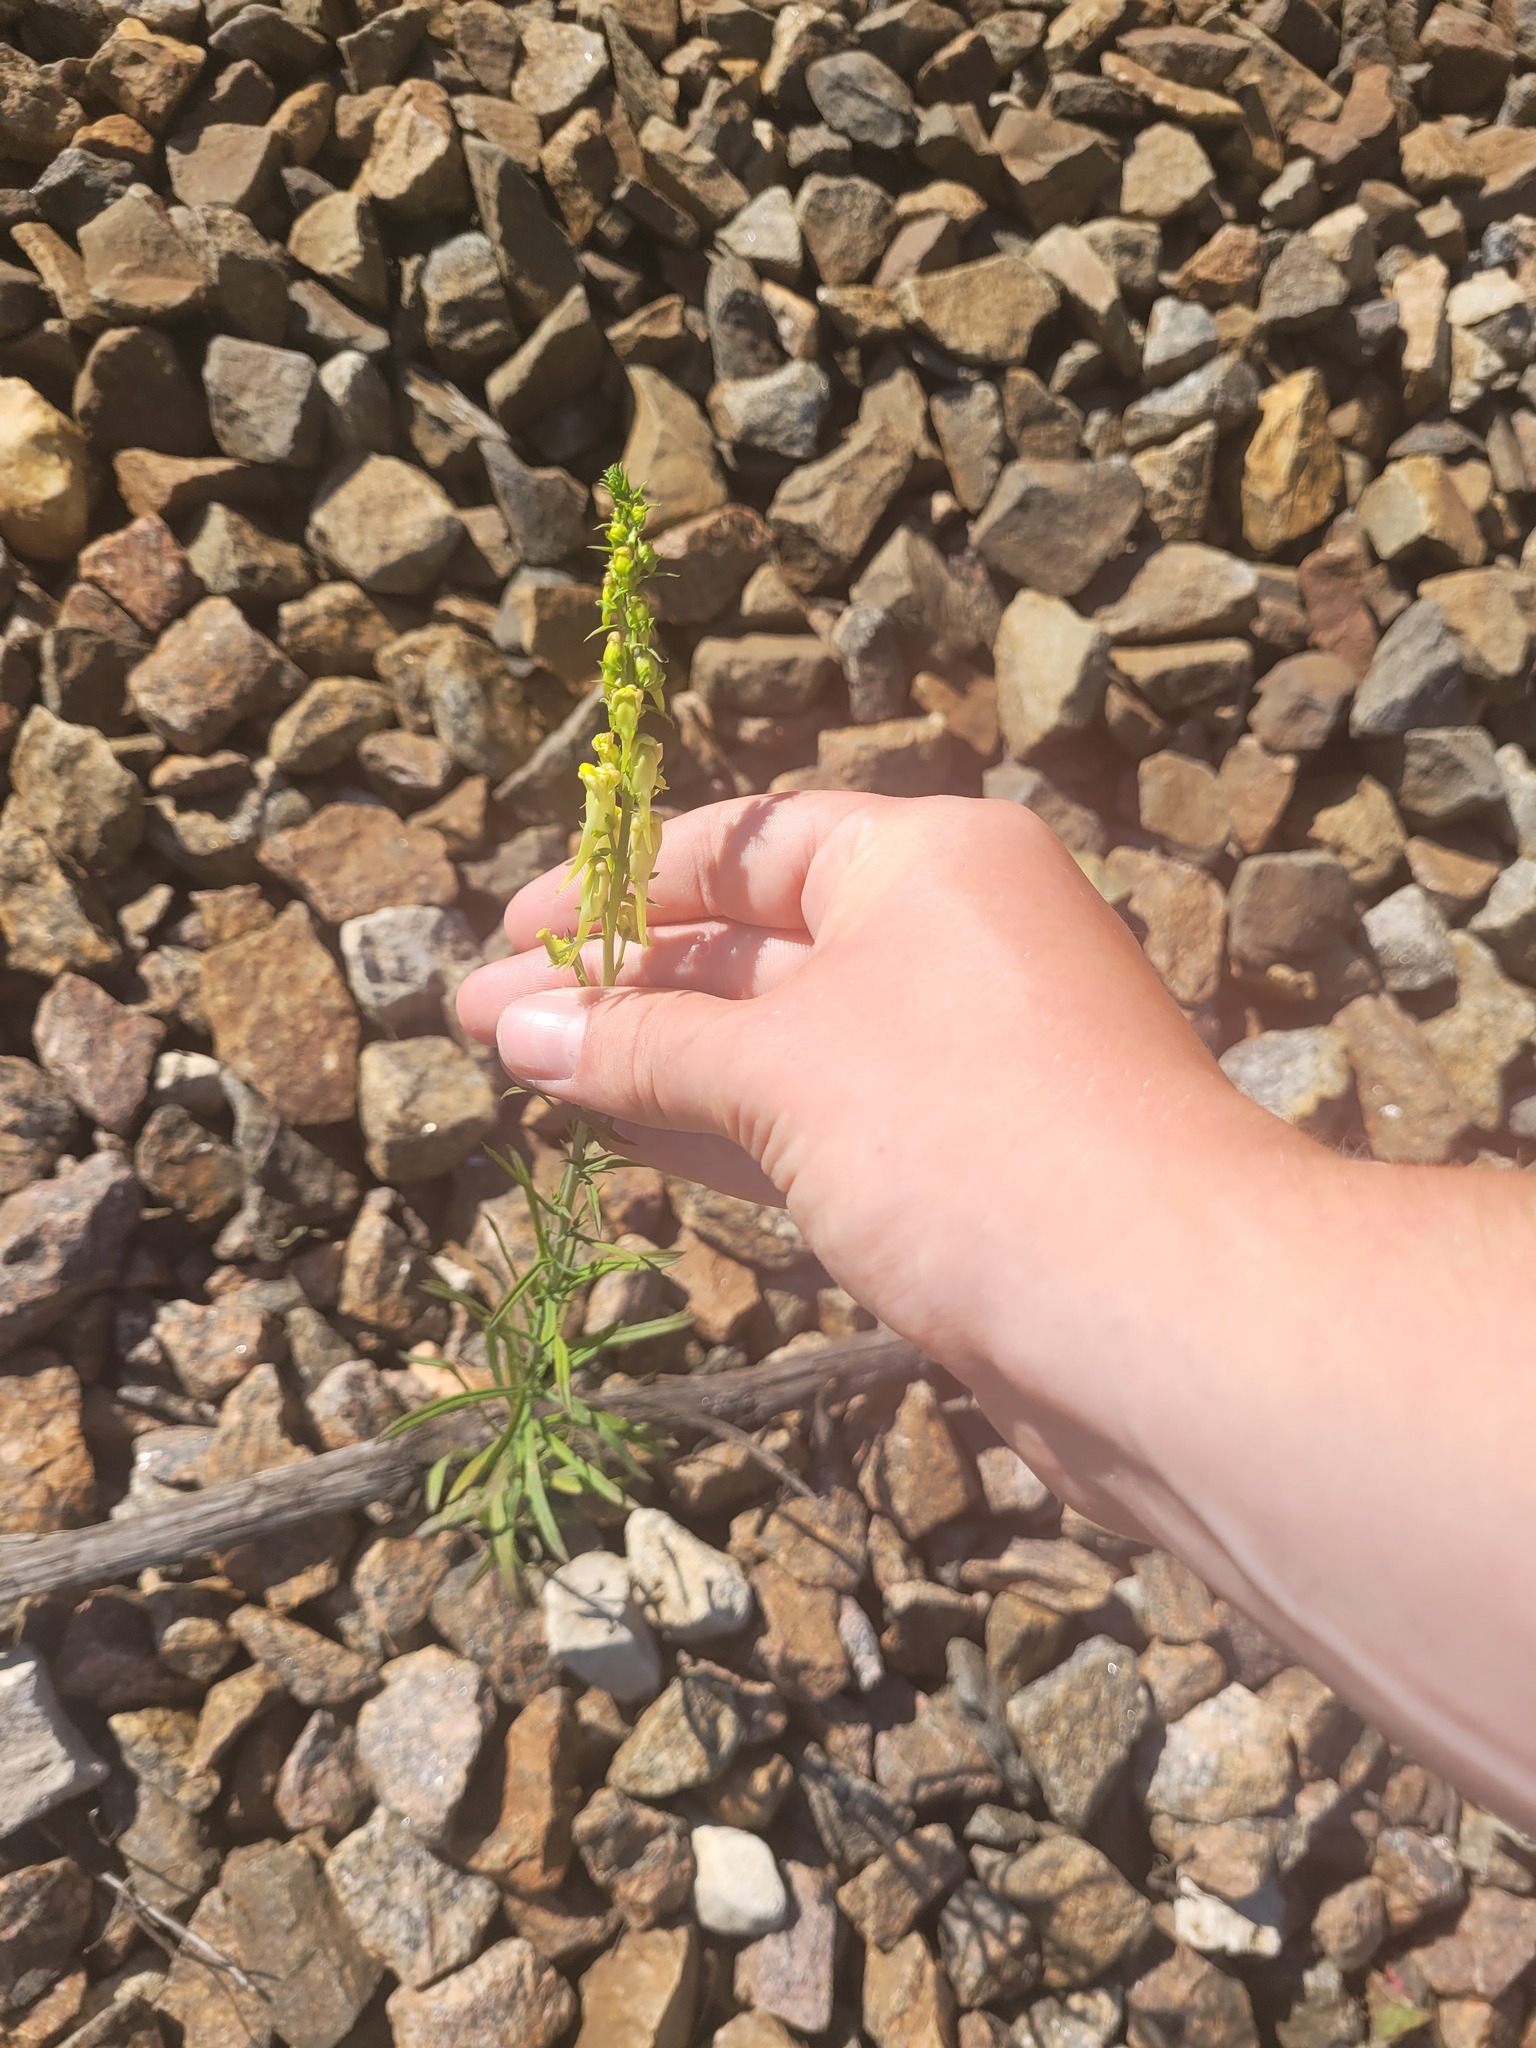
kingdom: Plantae
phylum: Tracheophyta
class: Magnoliopsida
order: Lamiales
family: Plantaginaceae
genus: Linaria
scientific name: Linaria vulgaris
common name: Butter and eggs
